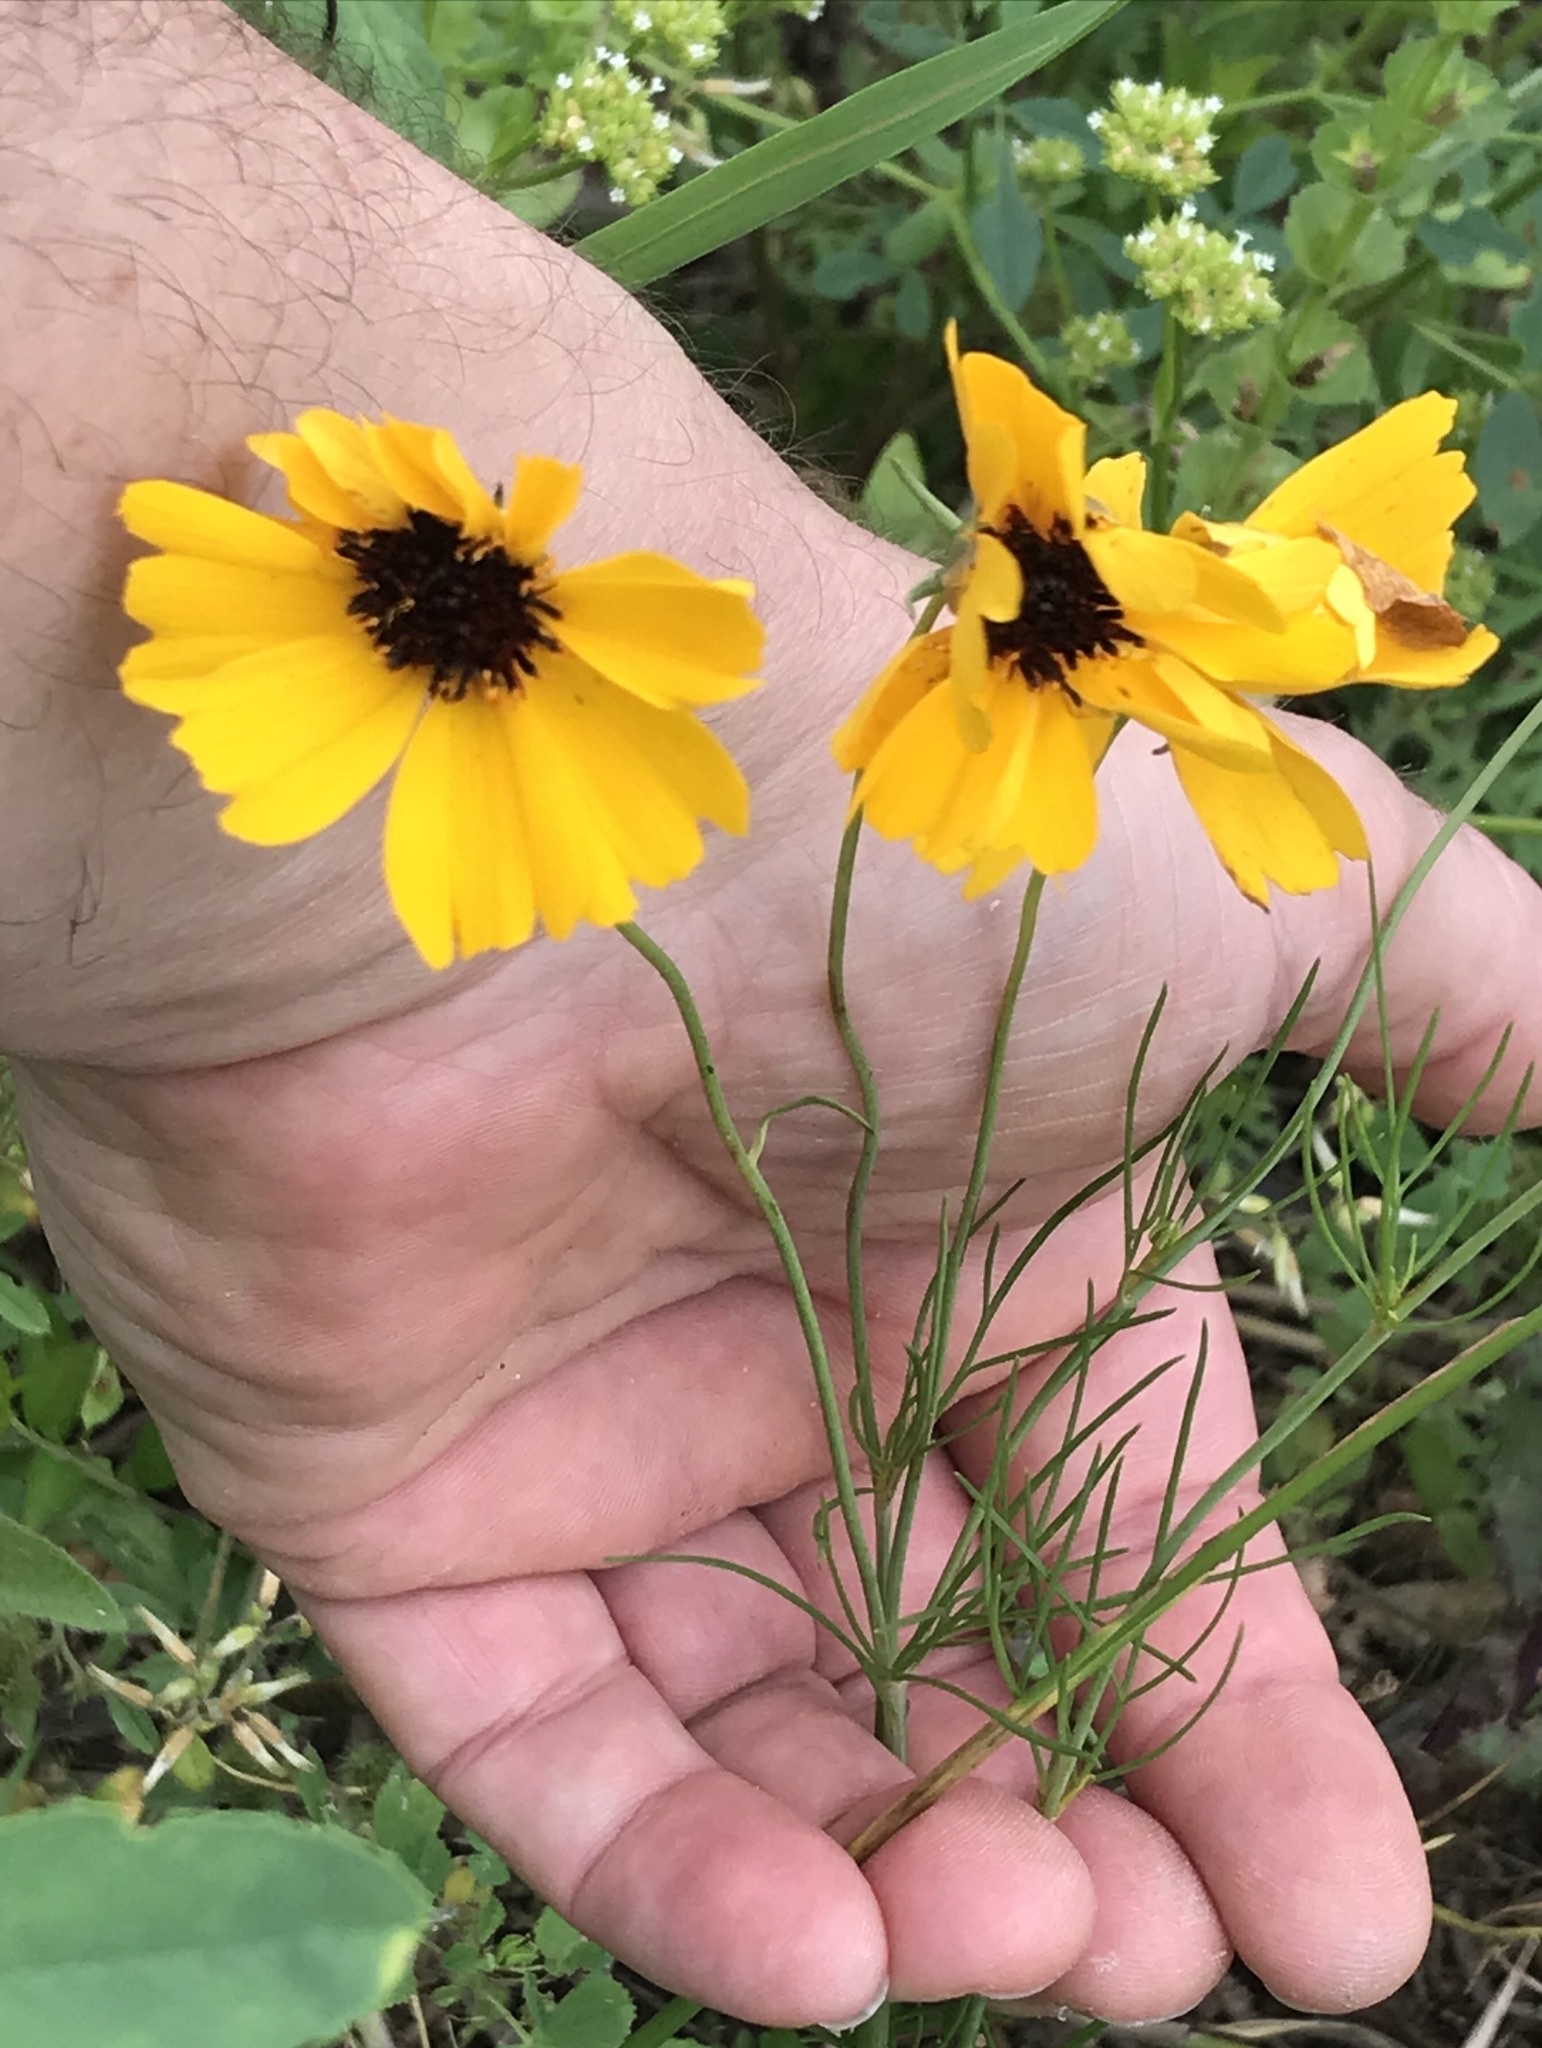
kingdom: Plantae
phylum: Tracheophyta
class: Magnoliopsida
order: Asterales
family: Asteraceae
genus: Thelesperma
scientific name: Thelesperma filifolium
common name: Stiff greenthread
